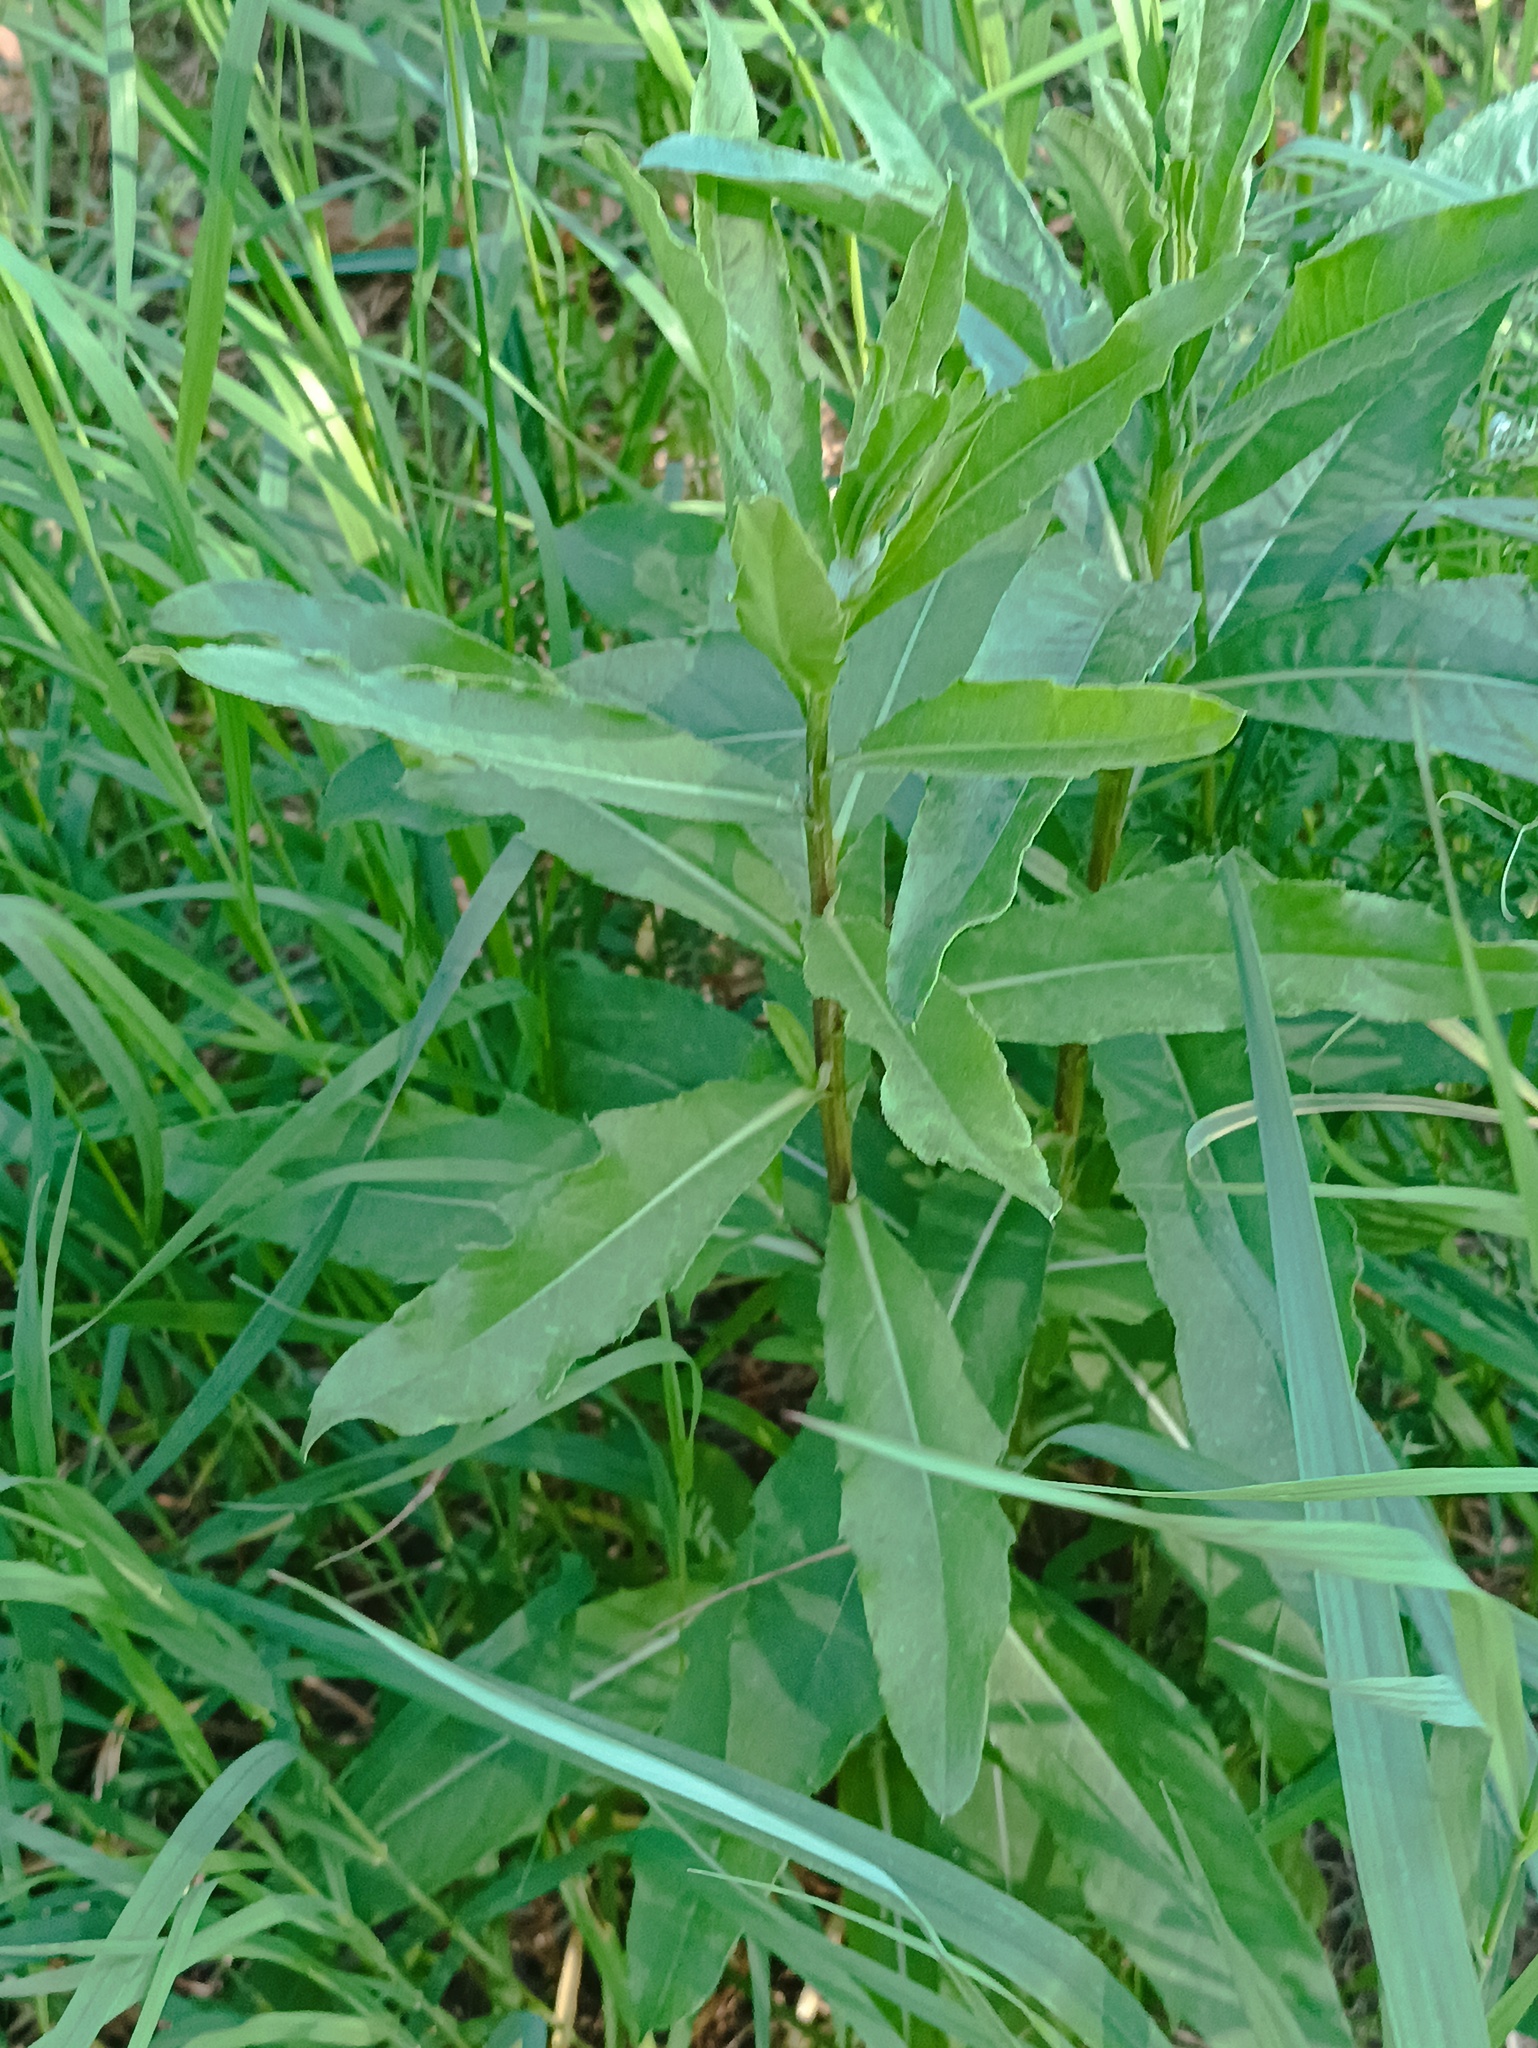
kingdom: Plantae
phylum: Tracheophyta
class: Magnoliopsida
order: Asterales
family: Asteraceae
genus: Cirsium
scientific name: Cirsium arvense
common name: Creeping thistle
